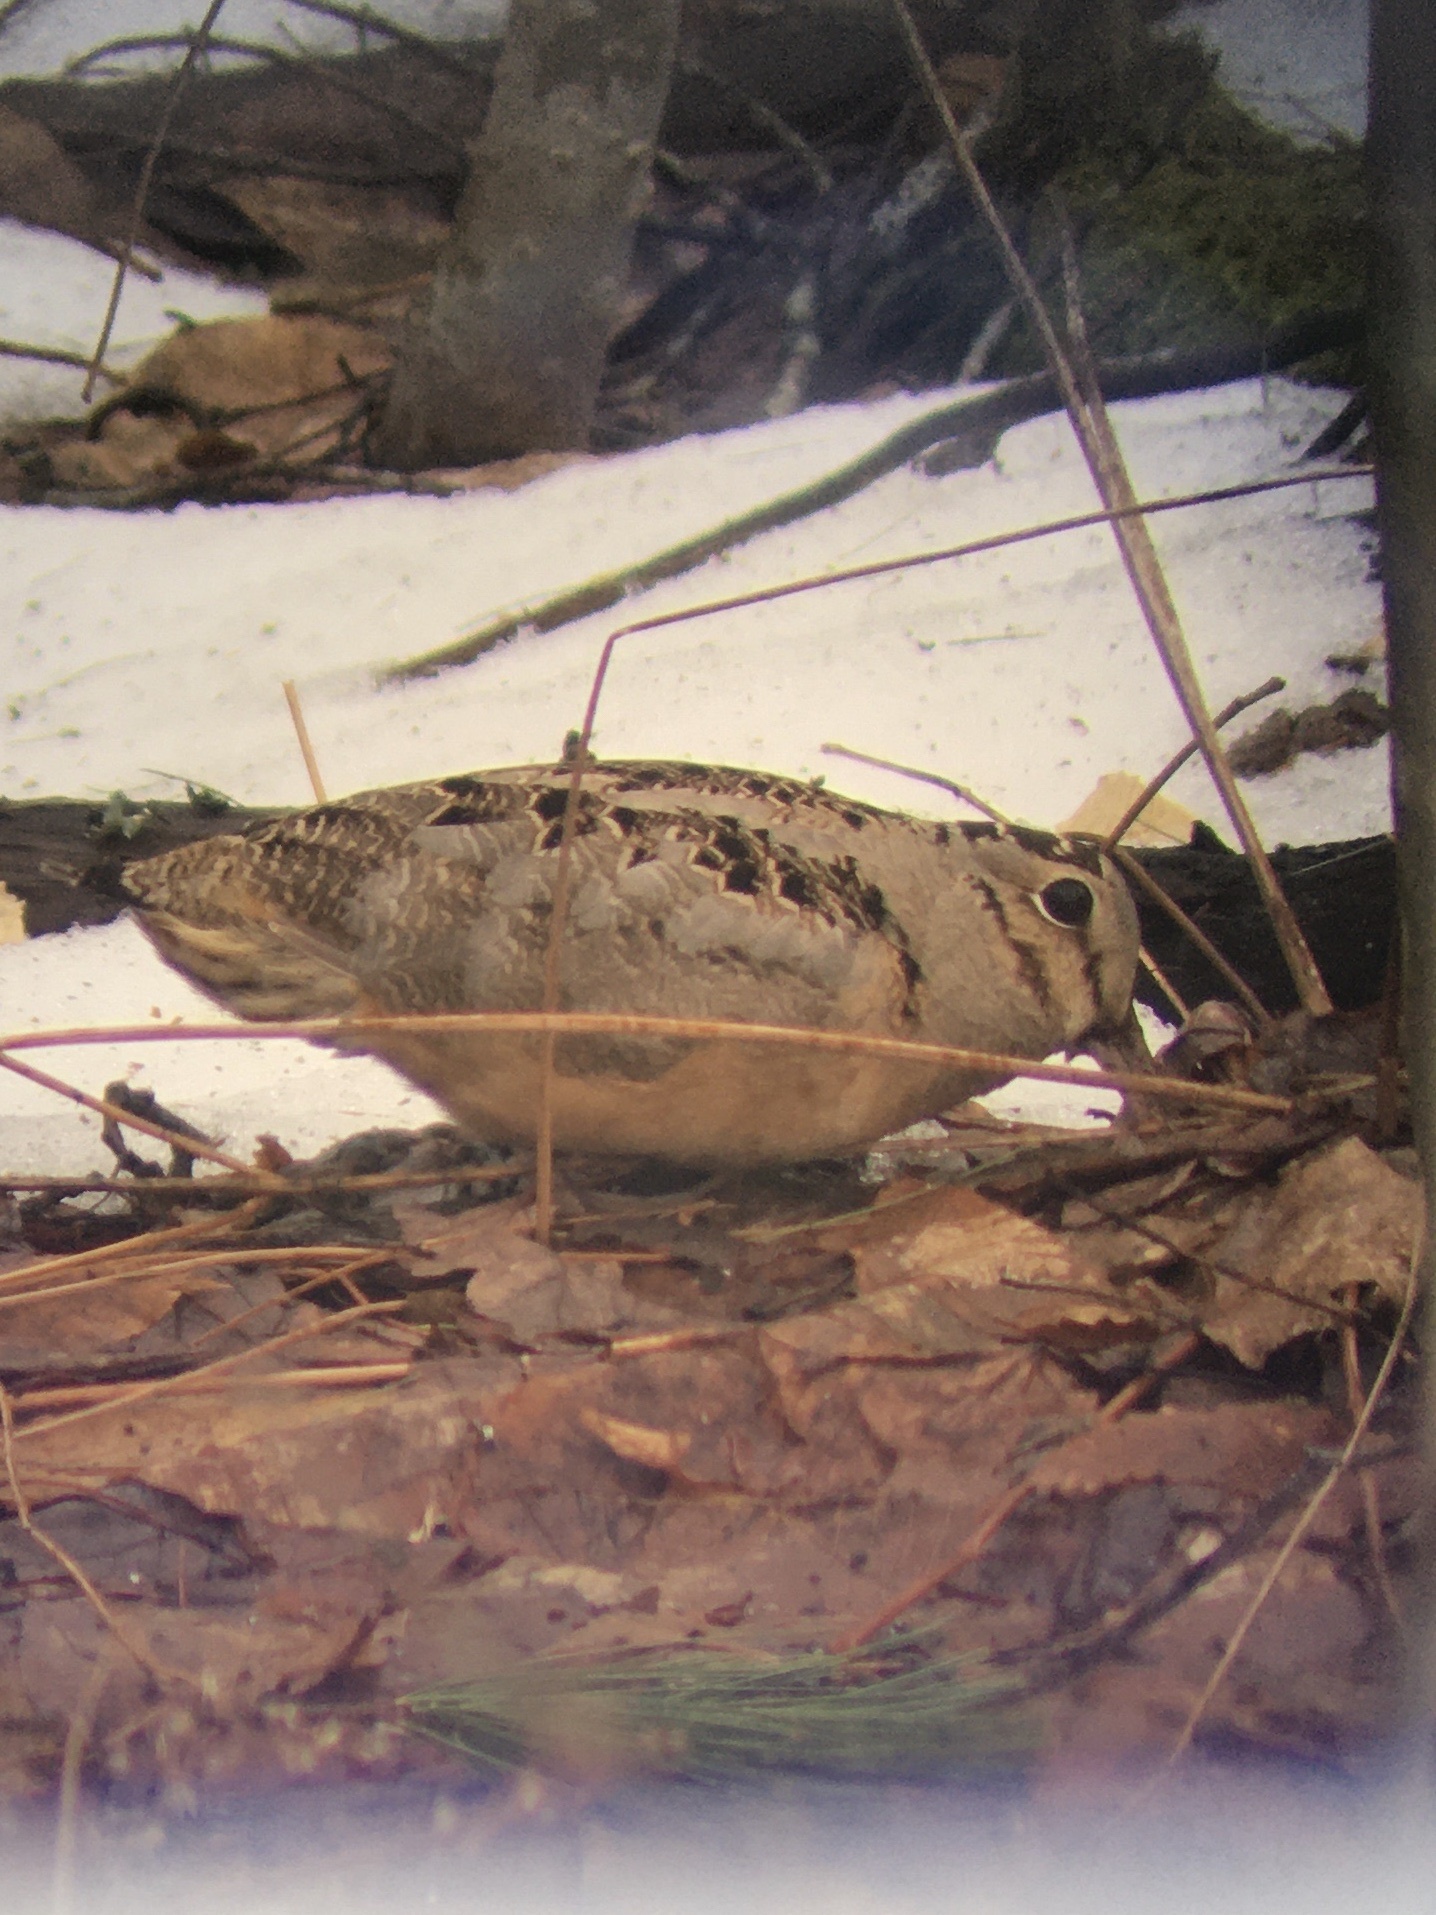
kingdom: Animalia
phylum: Chordata
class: Aves
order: Charadriiformes
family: Scolopacidae
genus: Scolopax
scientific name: Scolopax minor
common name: American woodcock
